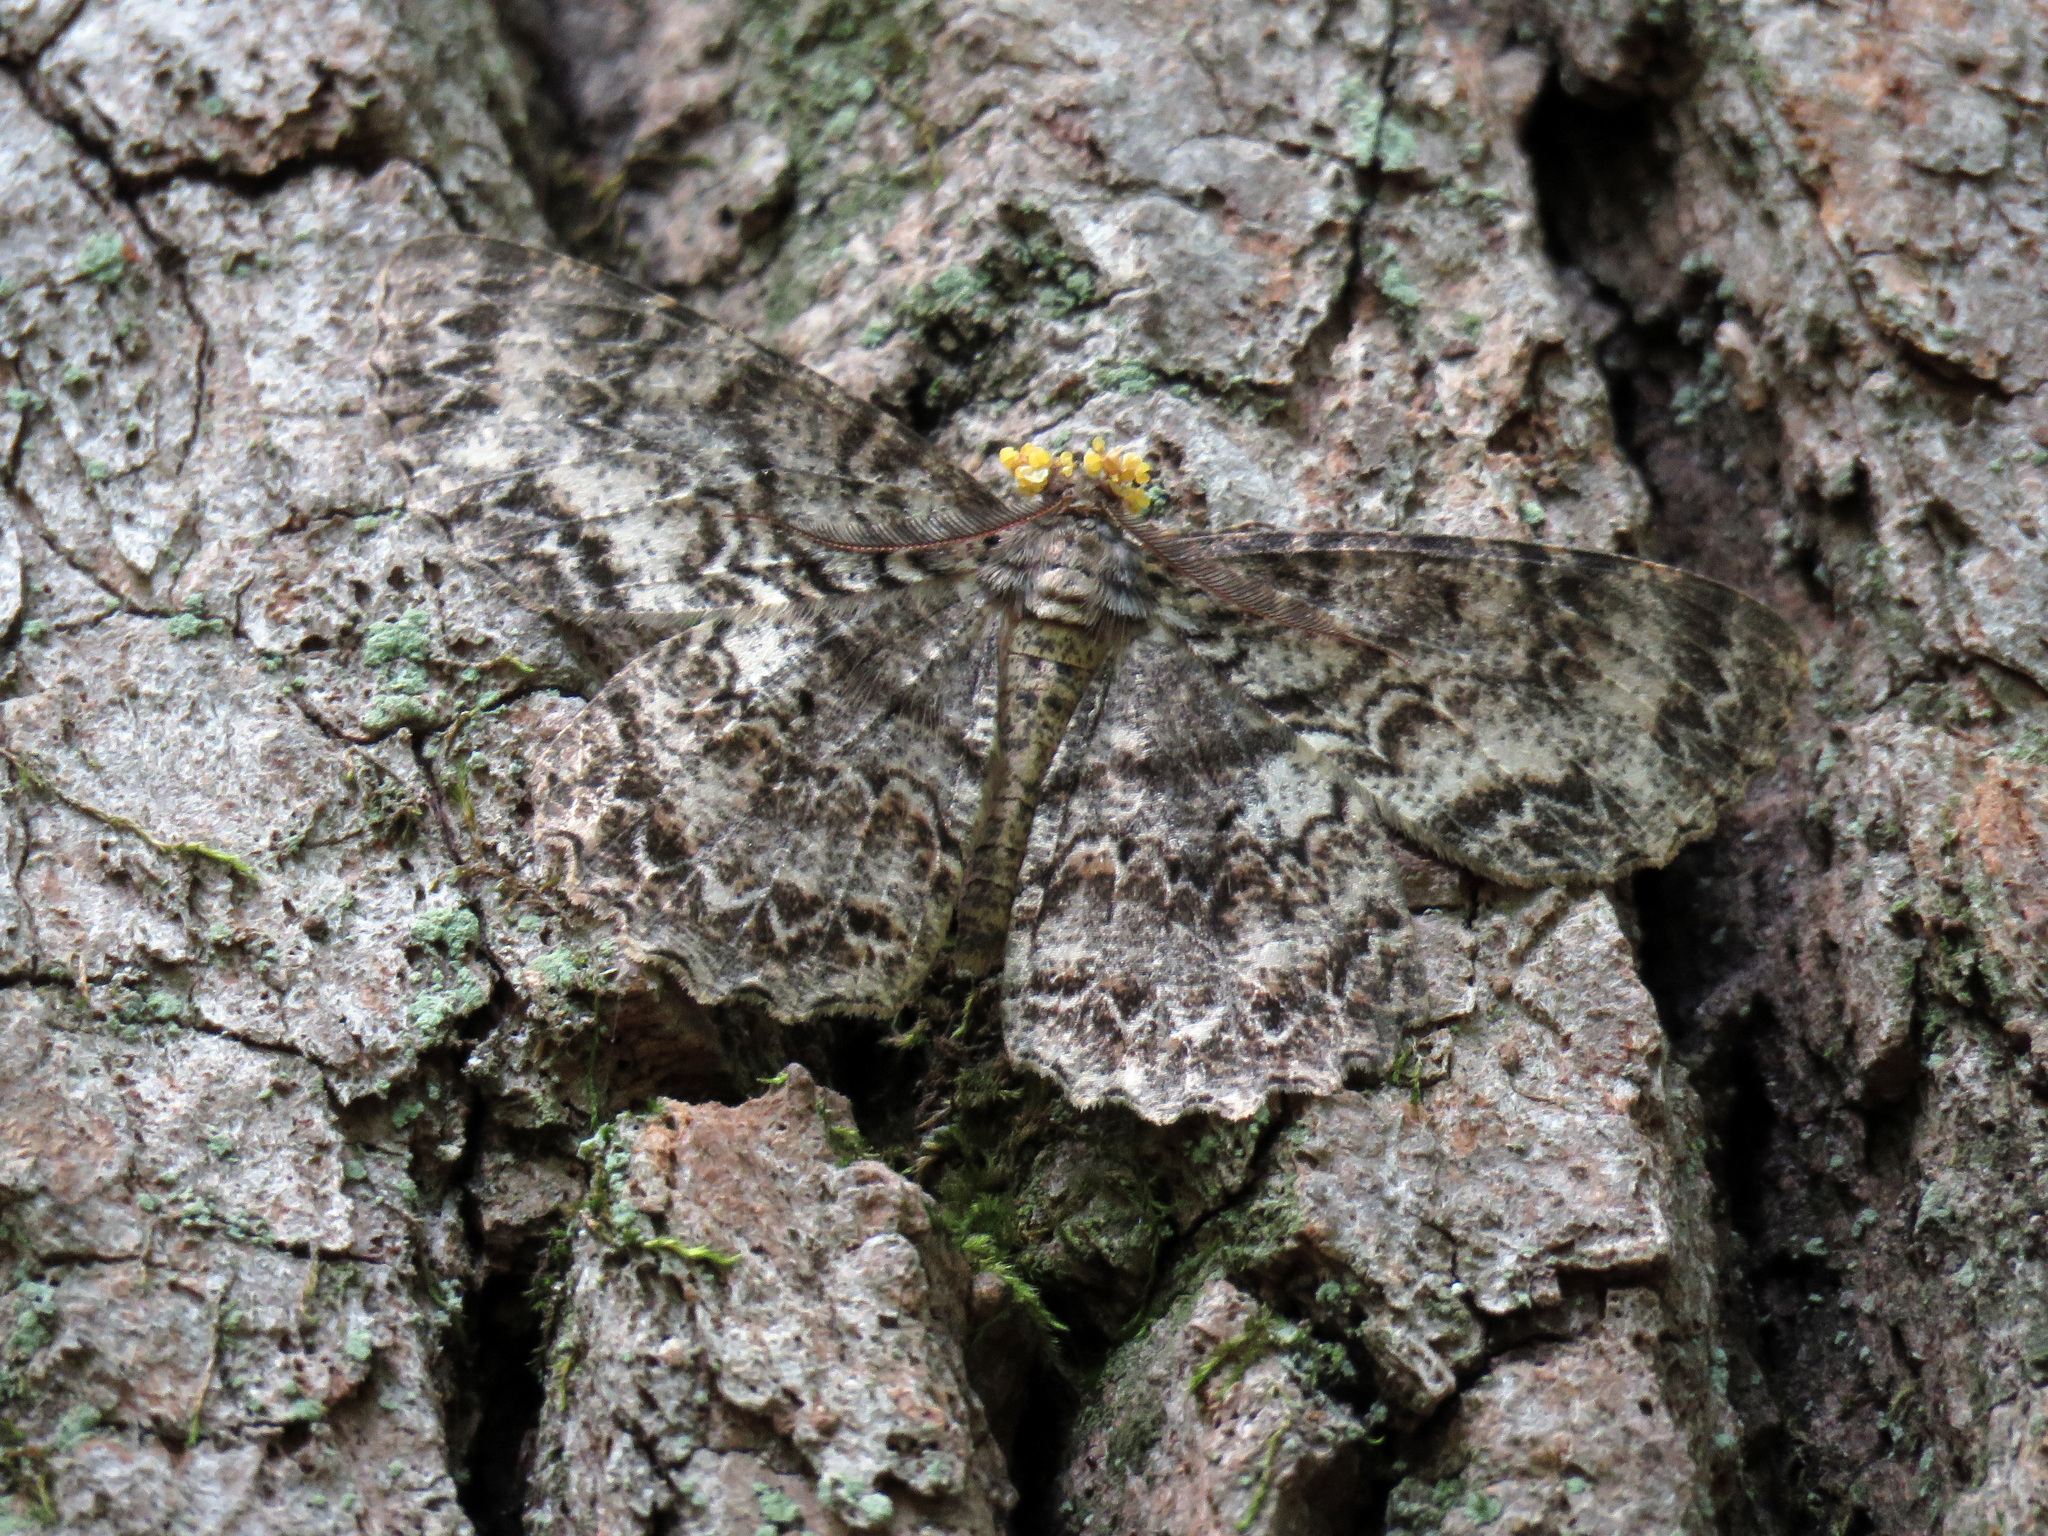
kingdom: Animalia
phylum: Arthropoda
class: Insecta
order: Lepidoptera
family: Geometridae
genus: Epimecis
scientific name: Epimecis hortaria
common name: Tulip-tree beauty
